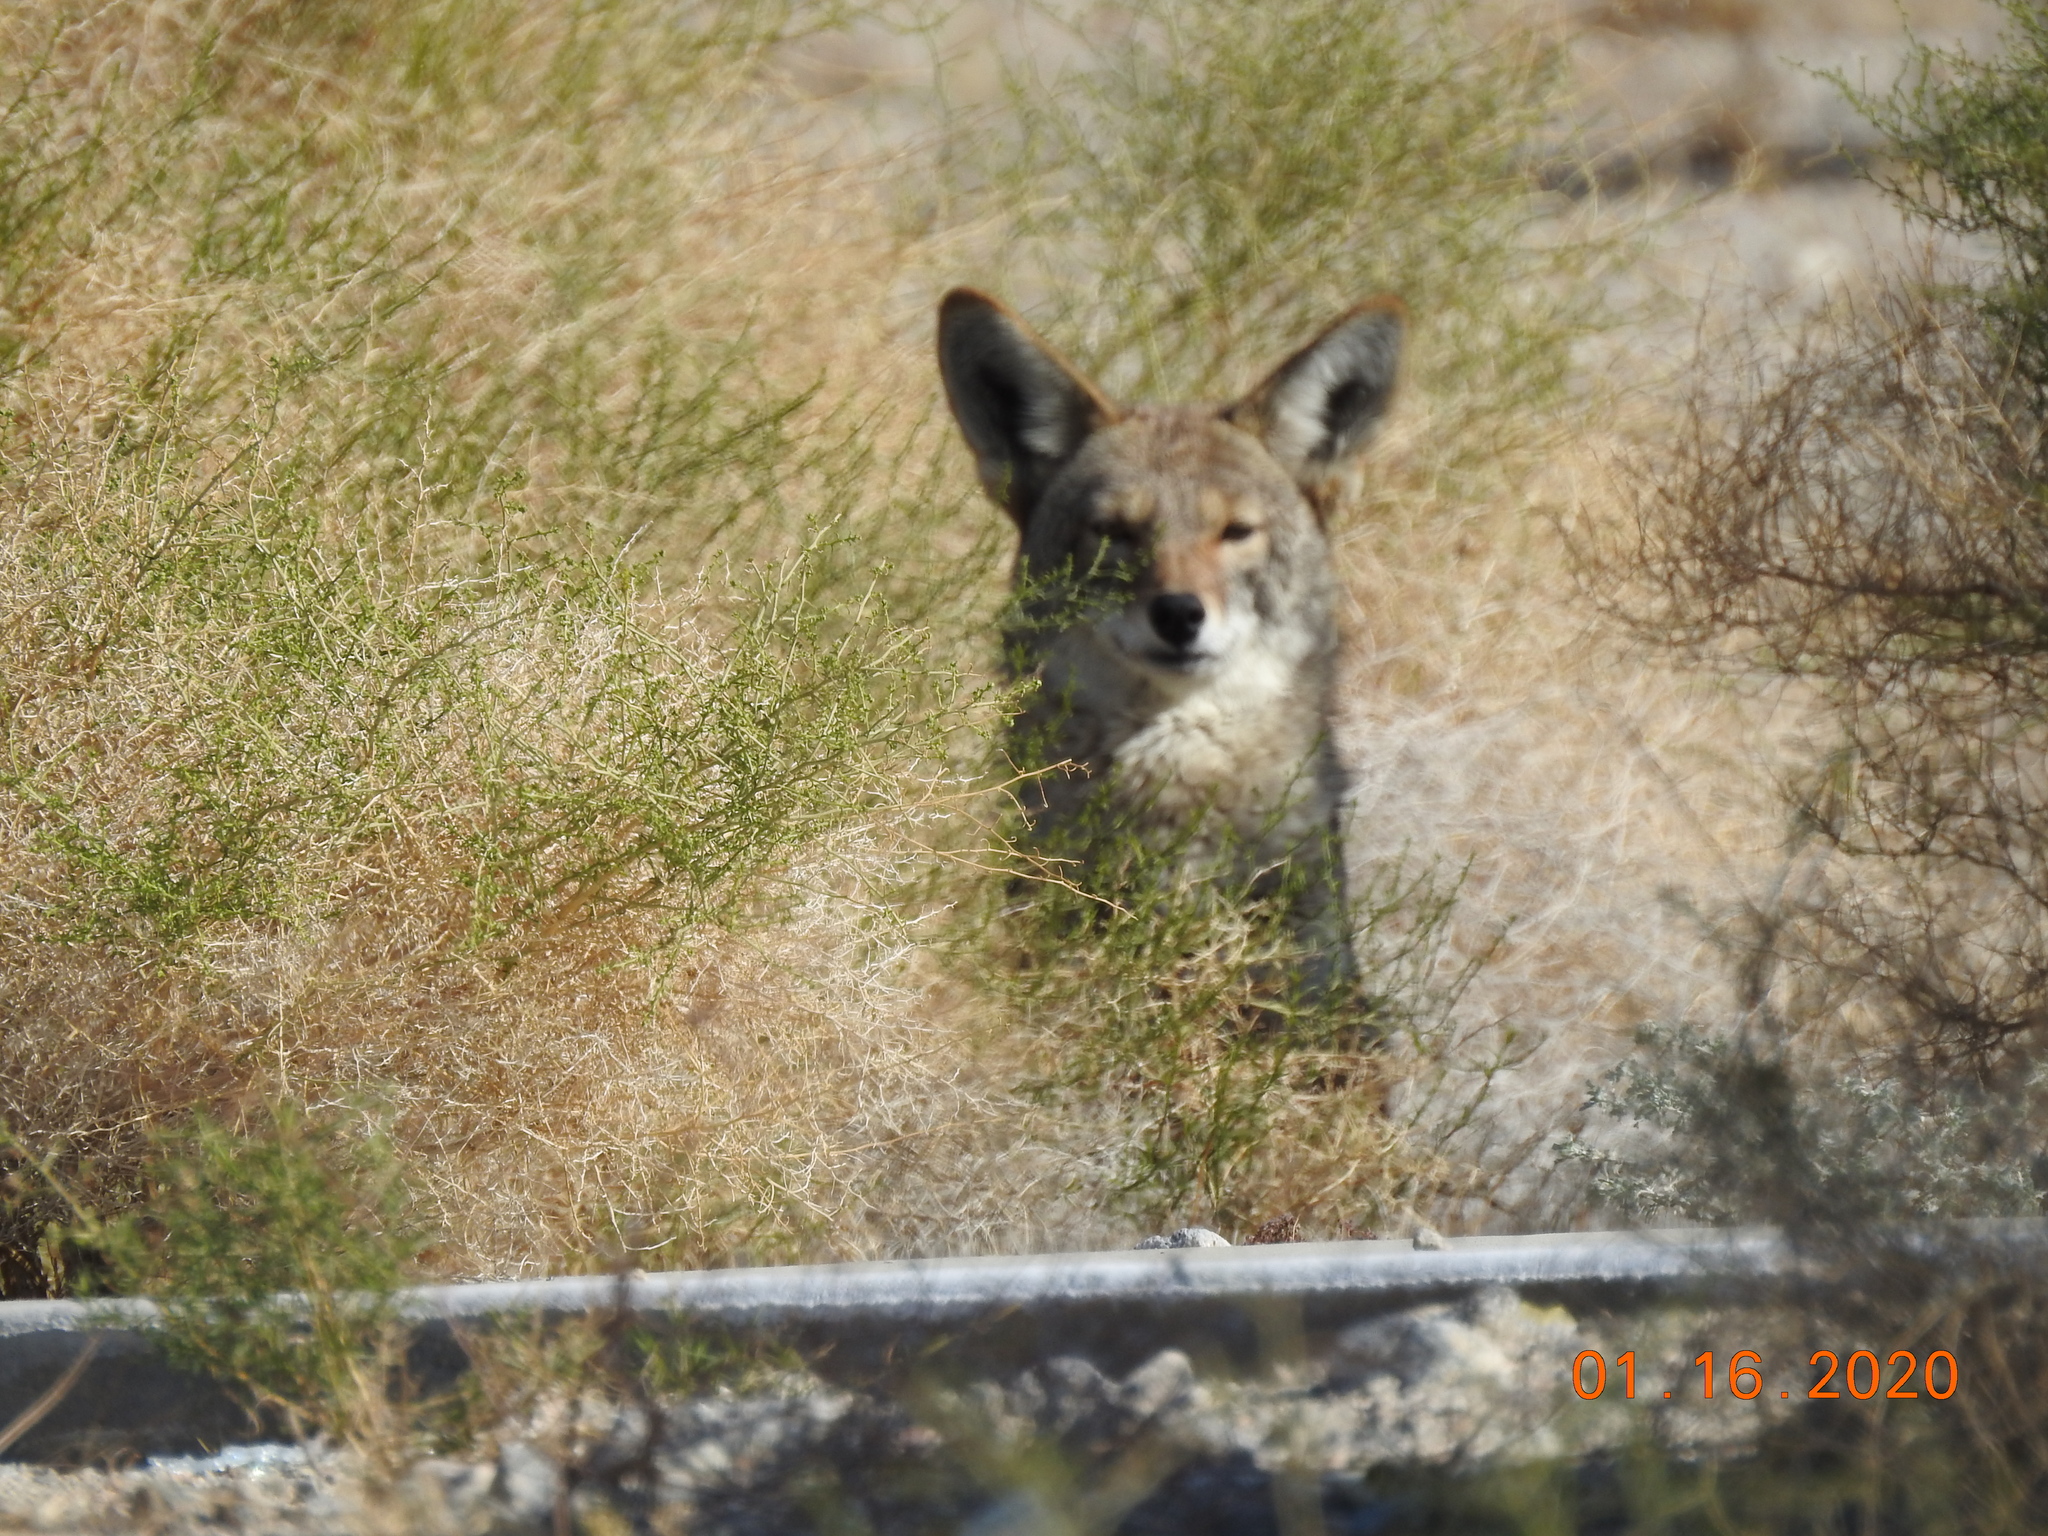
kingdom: Animalia
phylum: Chordata
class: Mammalia
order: Carnivora
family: Canidae
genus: Canis
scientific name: Canis latrans
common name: Coyote
